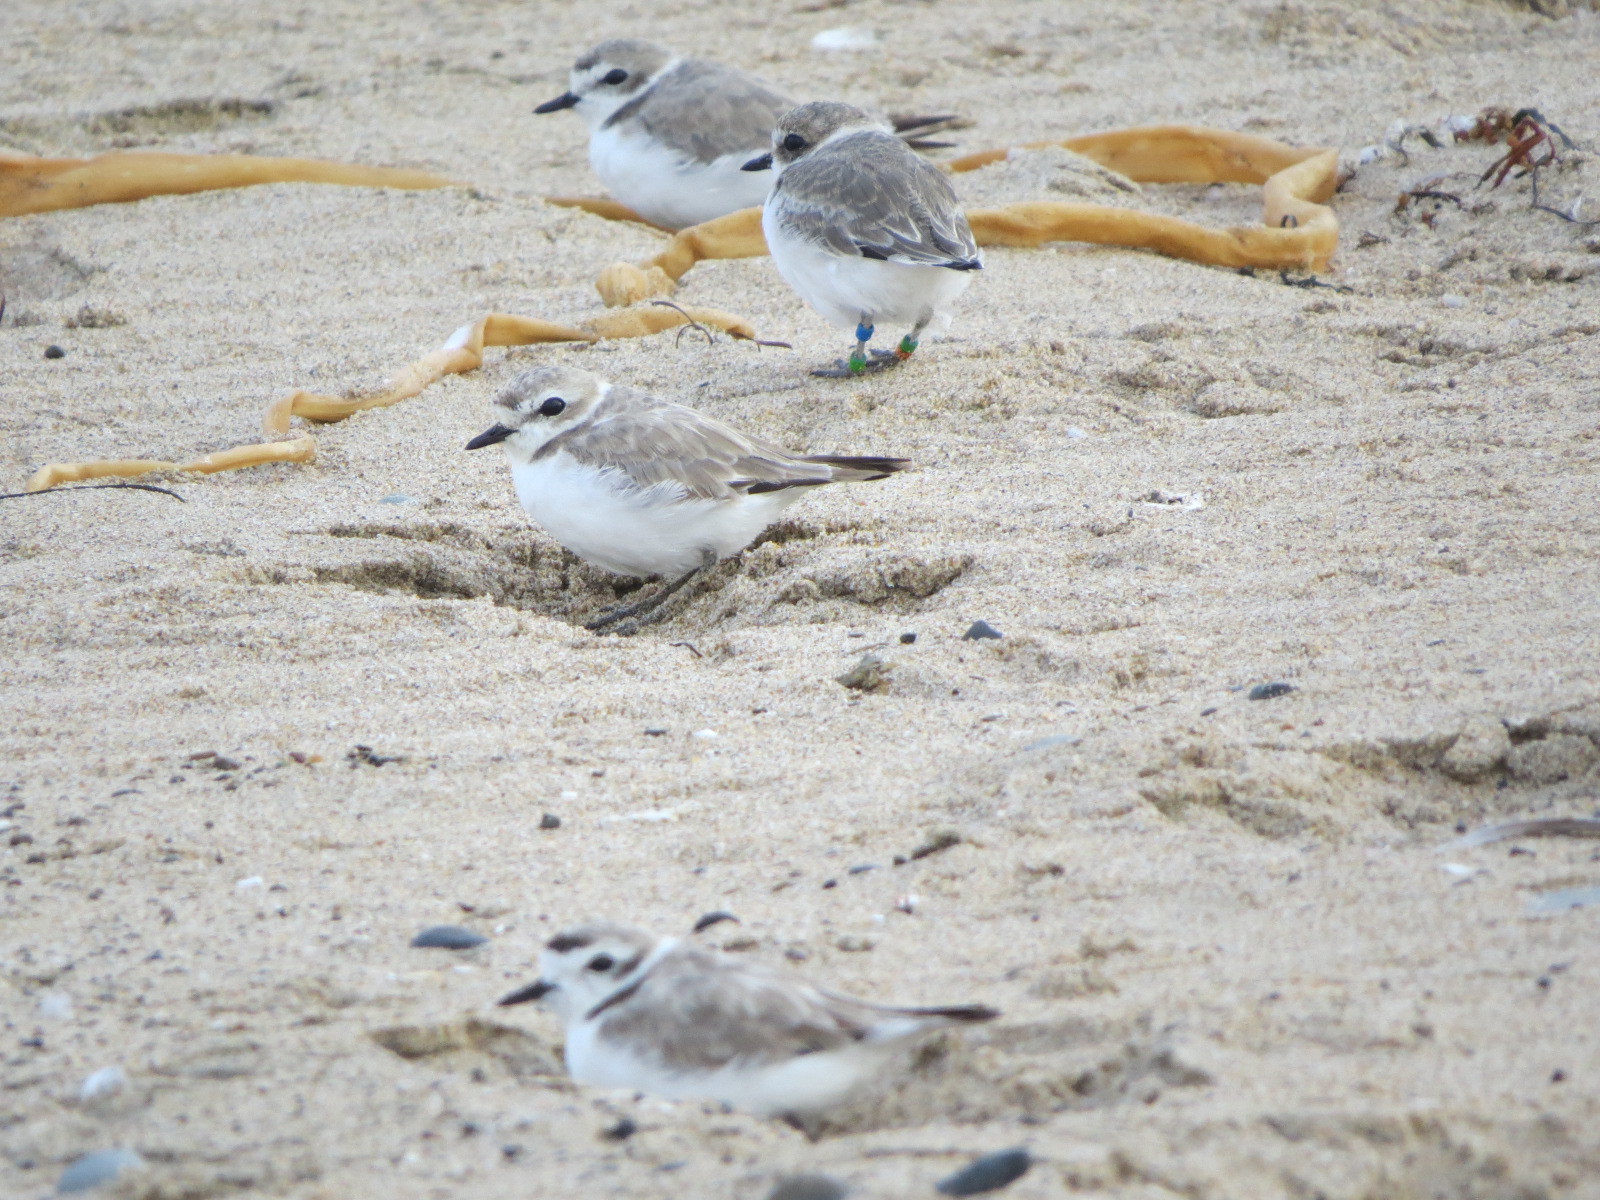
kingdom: Animalia
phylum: Chordata
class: Aves
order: Charadriiformes
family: Charadriidae
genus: Anarhynchus
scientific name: Anarhynchus
